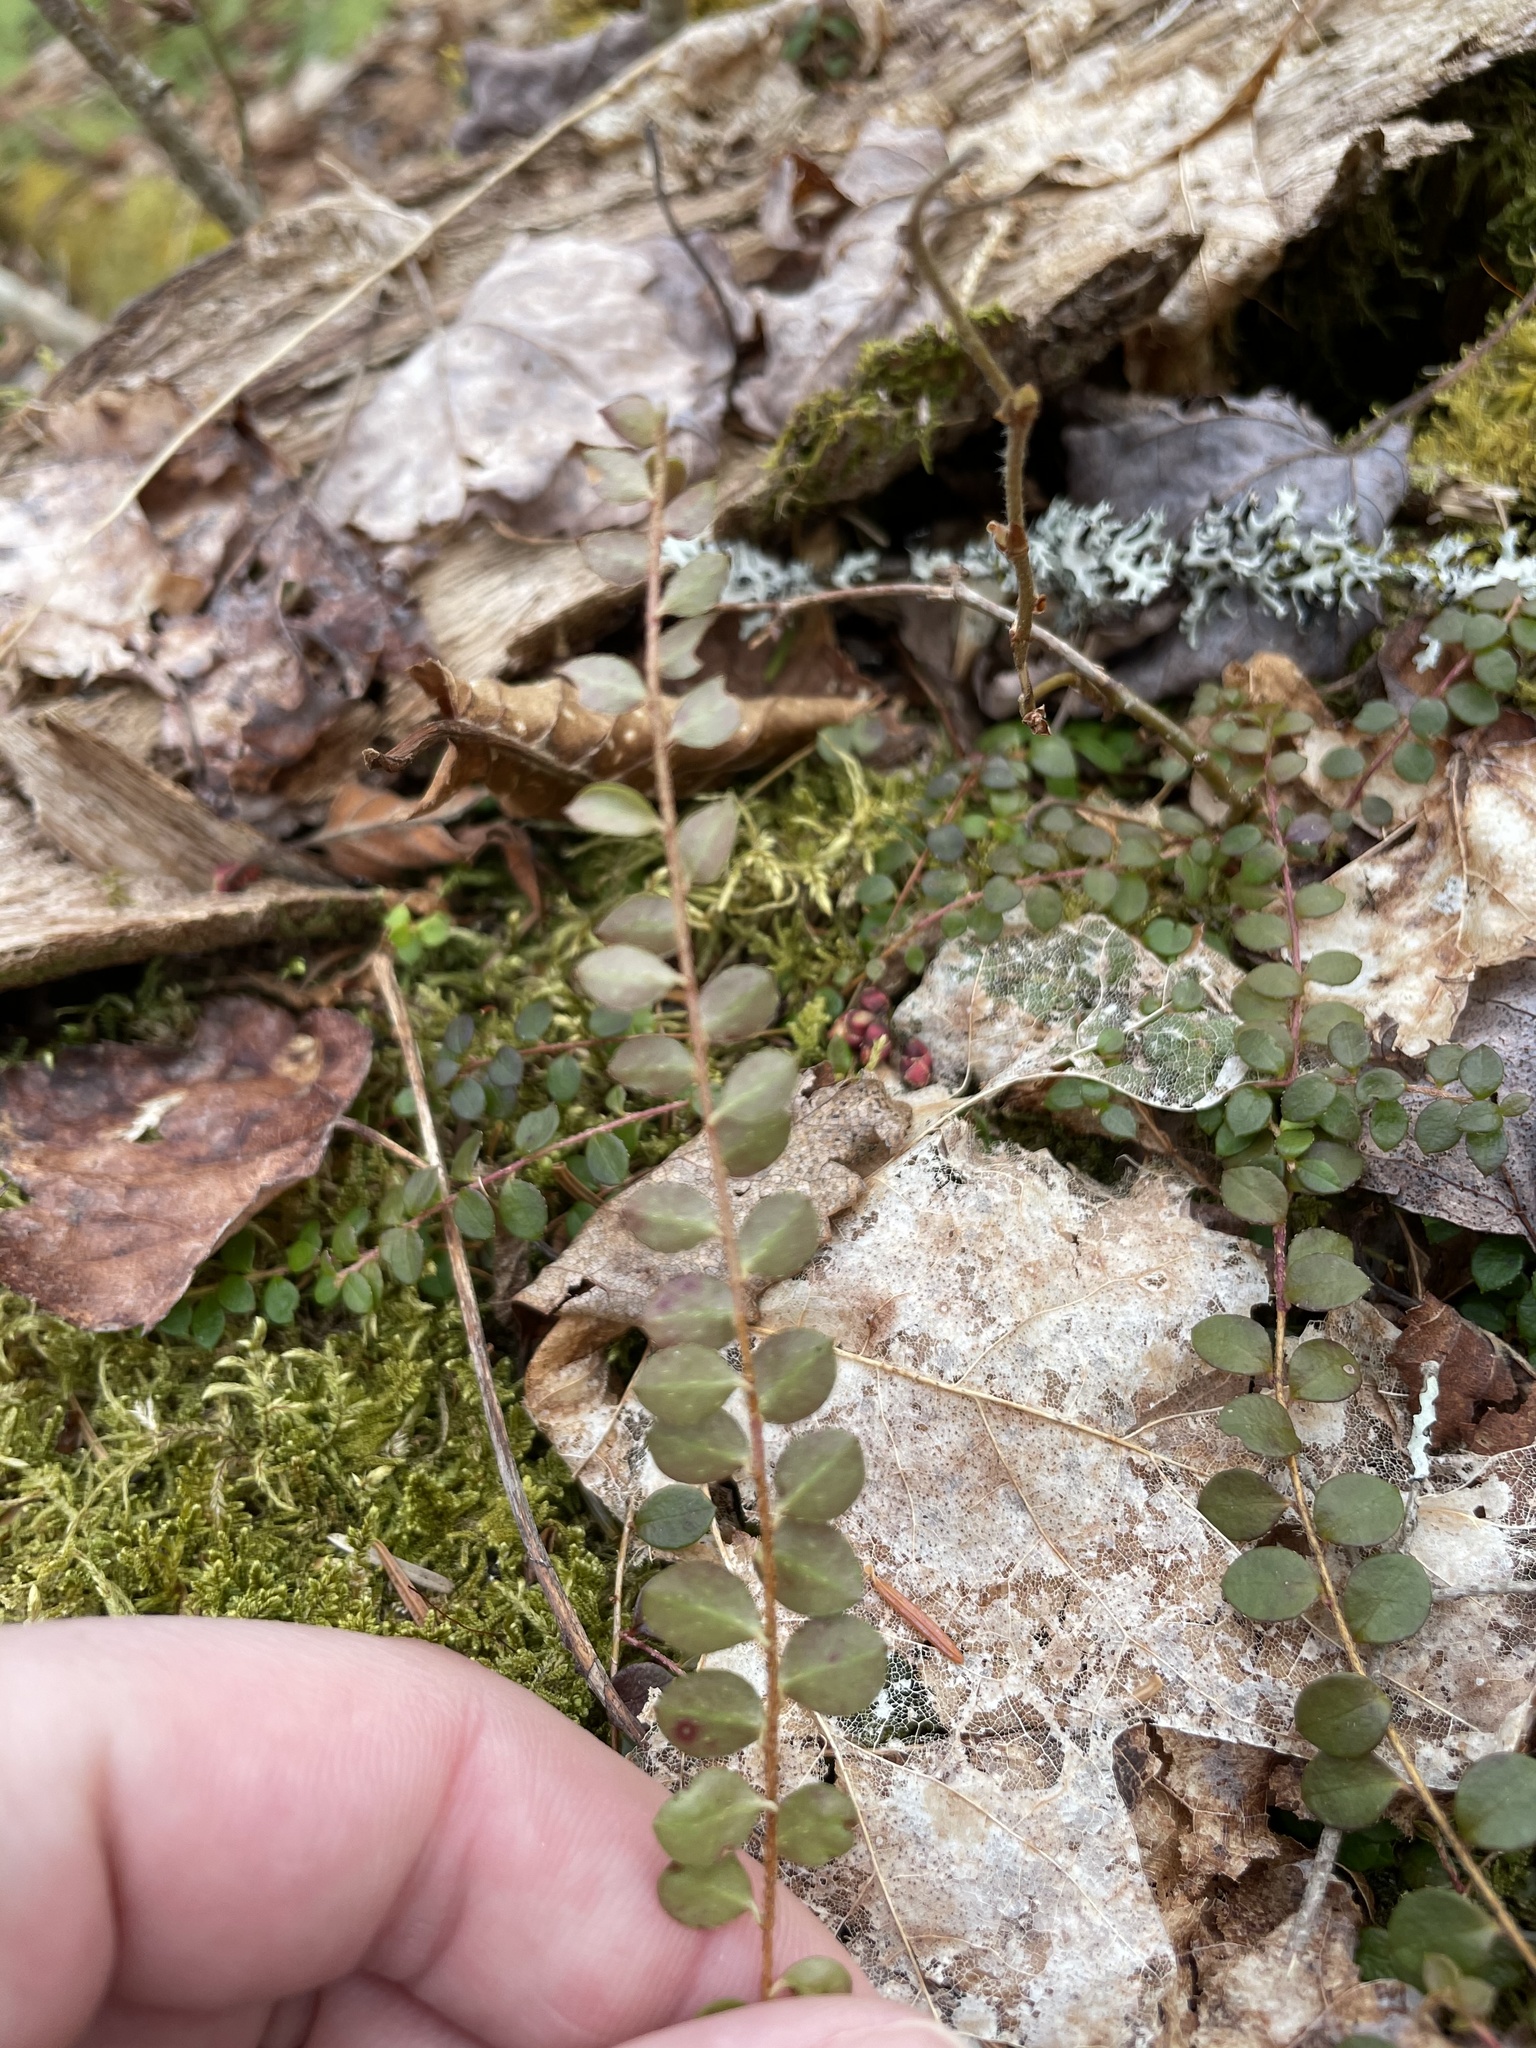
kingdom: Plantae
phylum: Tracheophyta
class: Magnoliopsida
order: Ericales
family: Ericaceae
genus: Gaultheria
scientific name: Gaultheria hispidula
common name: Cancer wintergreen
